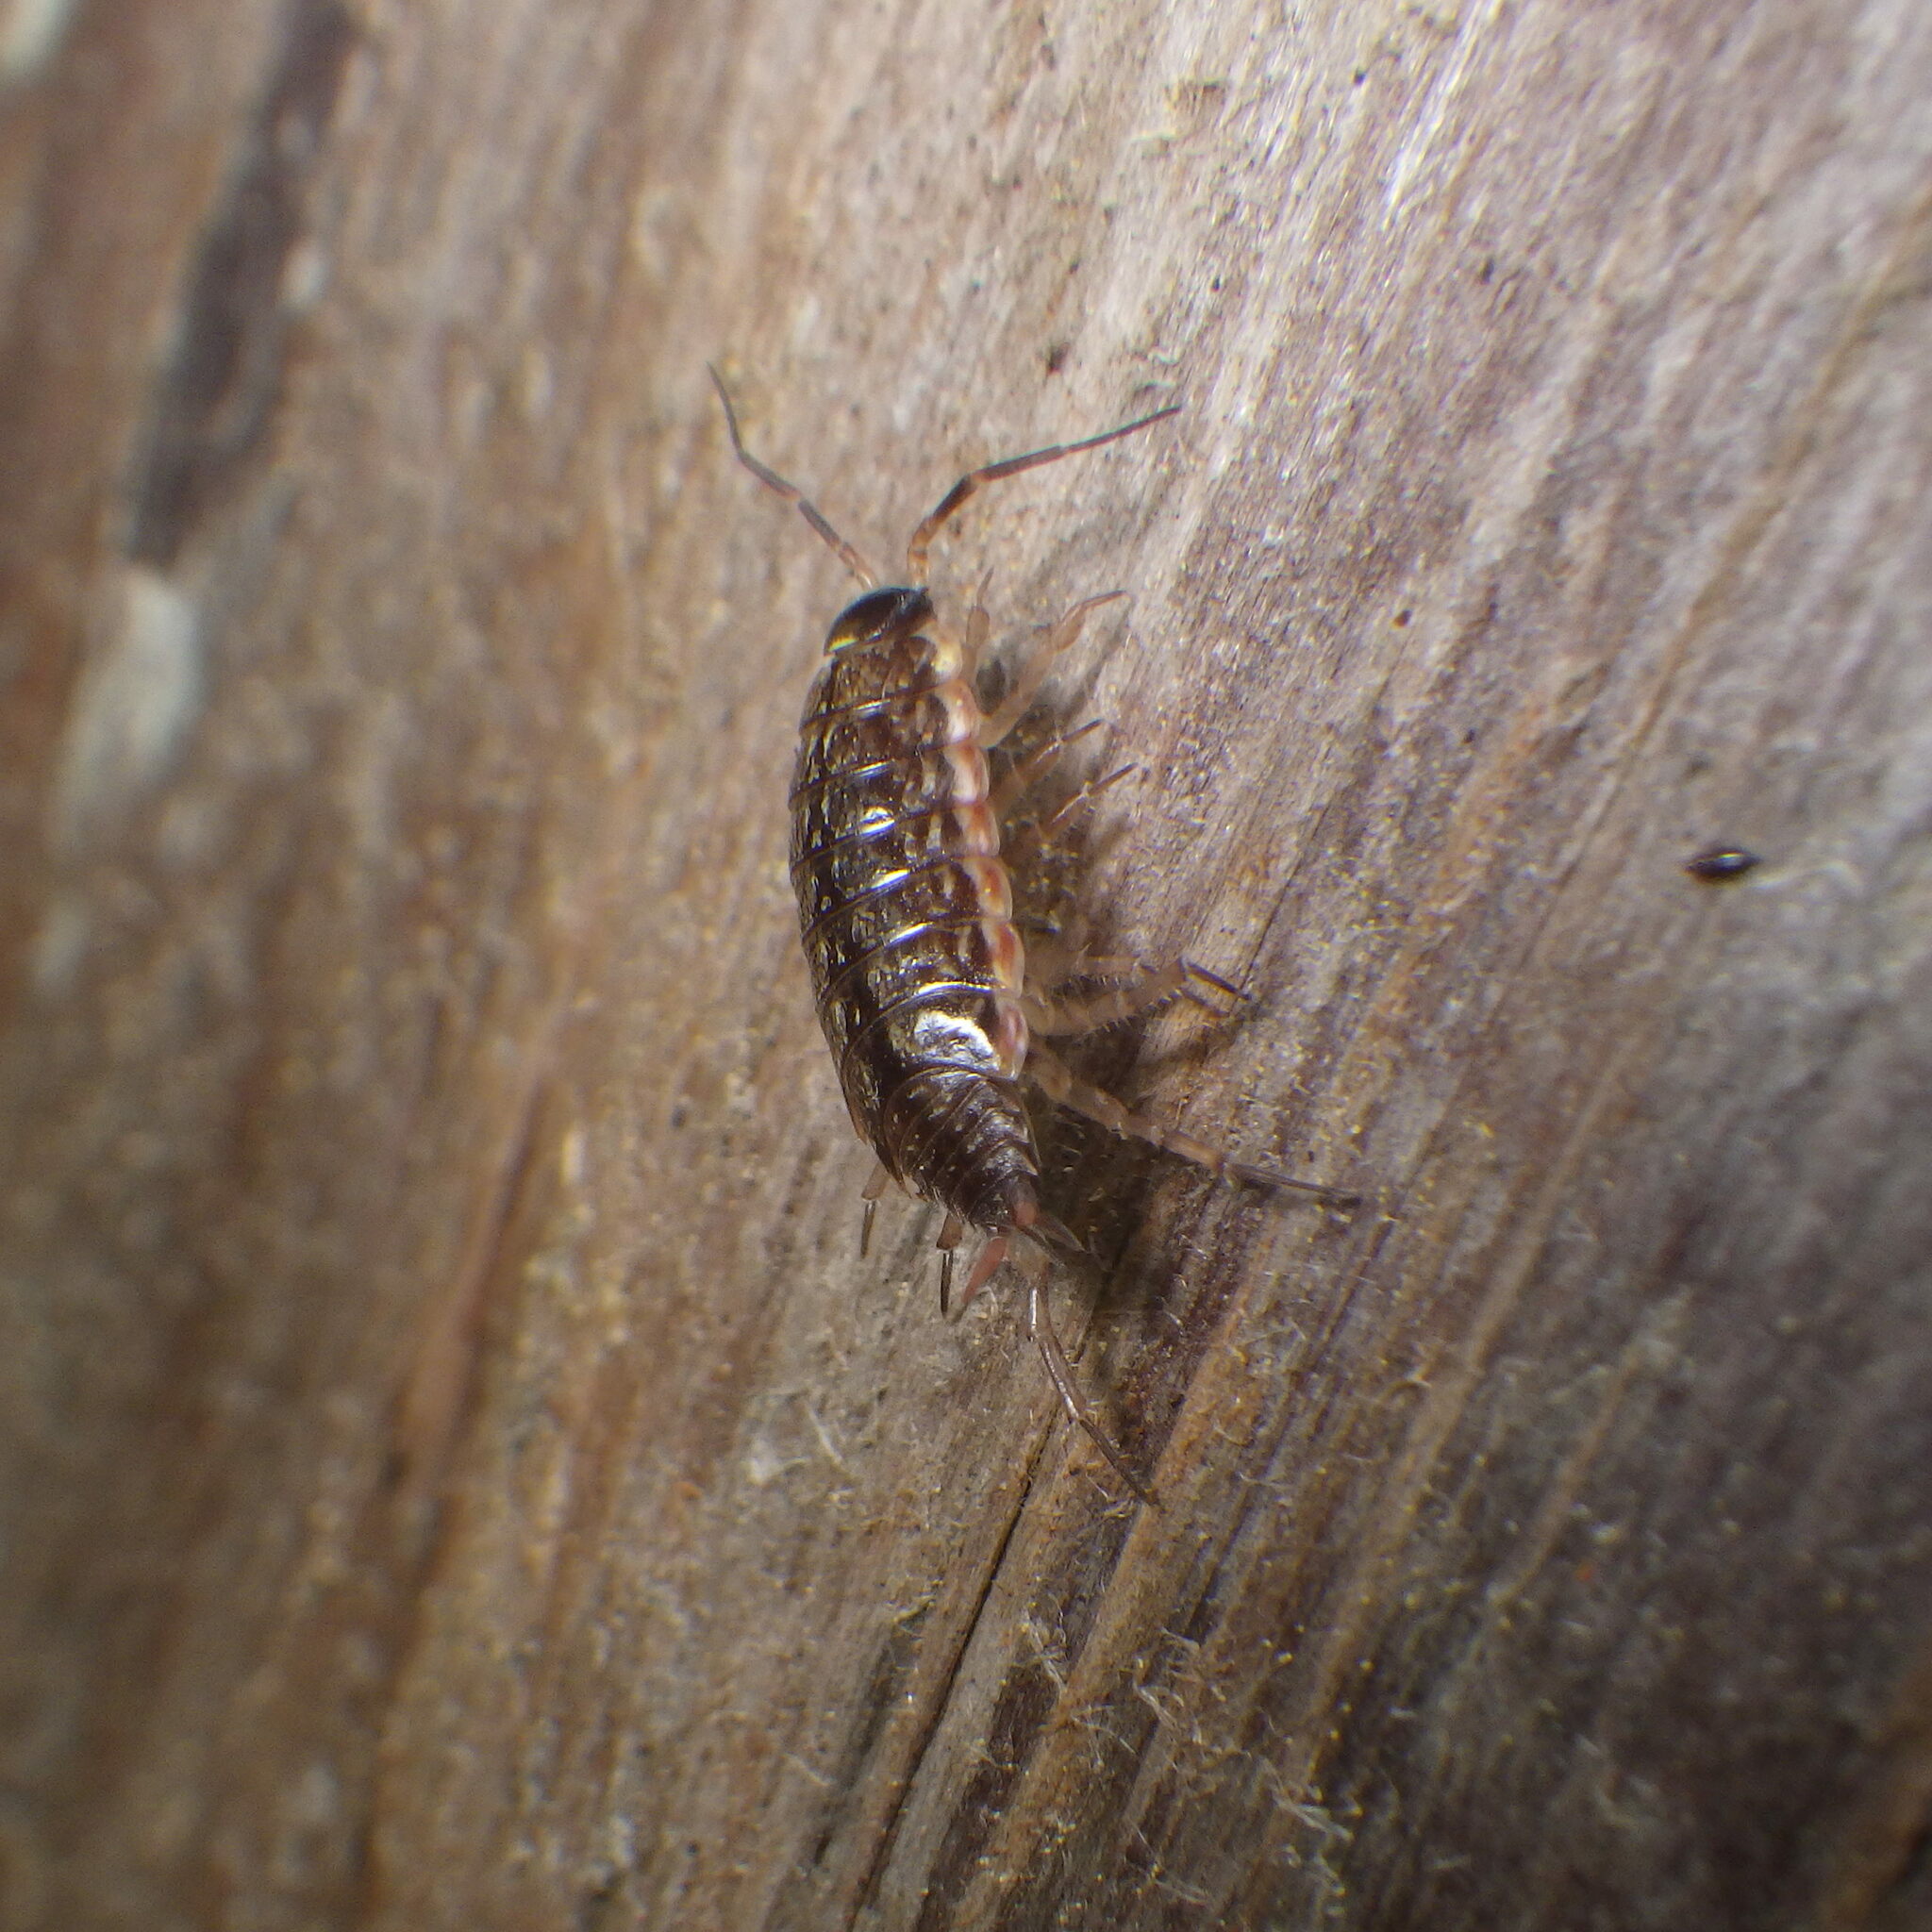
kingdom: Animalia
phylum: Arthropoda
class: Malacostraca
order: Isopoda
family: Philosciidae
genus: Philoscia
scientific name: Philoscia muscorum
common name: Common striped woodlouse
